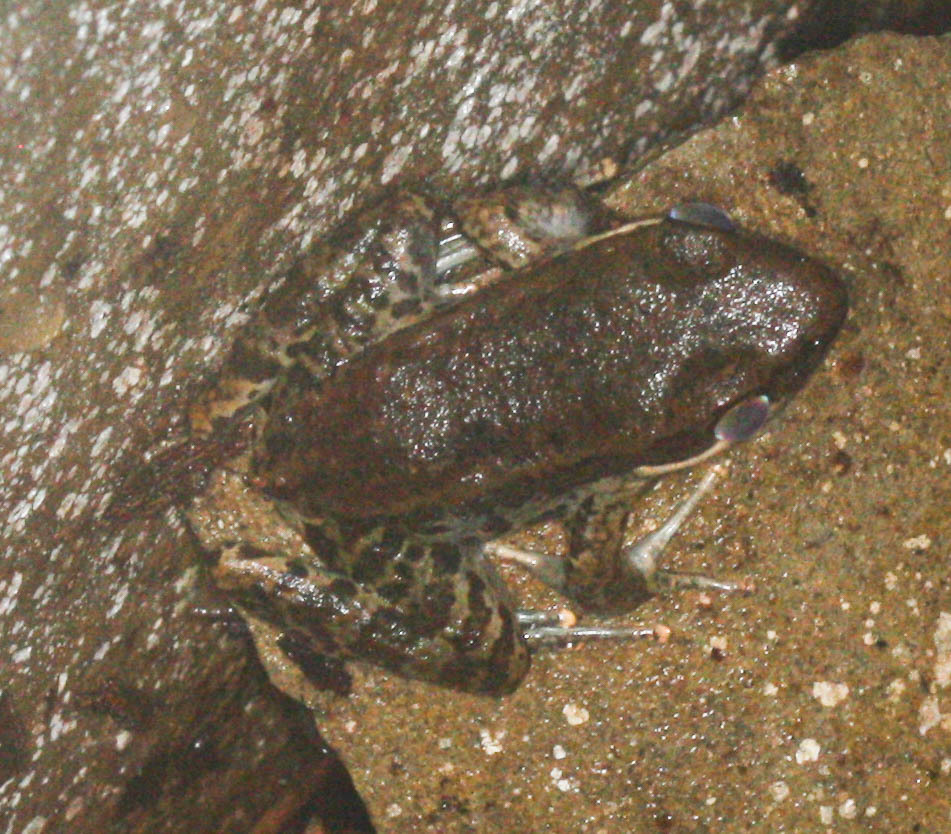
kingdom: Animalia
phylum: Chordata
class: Amphibia
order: Anura
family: Ranidae
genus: Sylvirana
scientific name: Sylvirana nigrovittata
